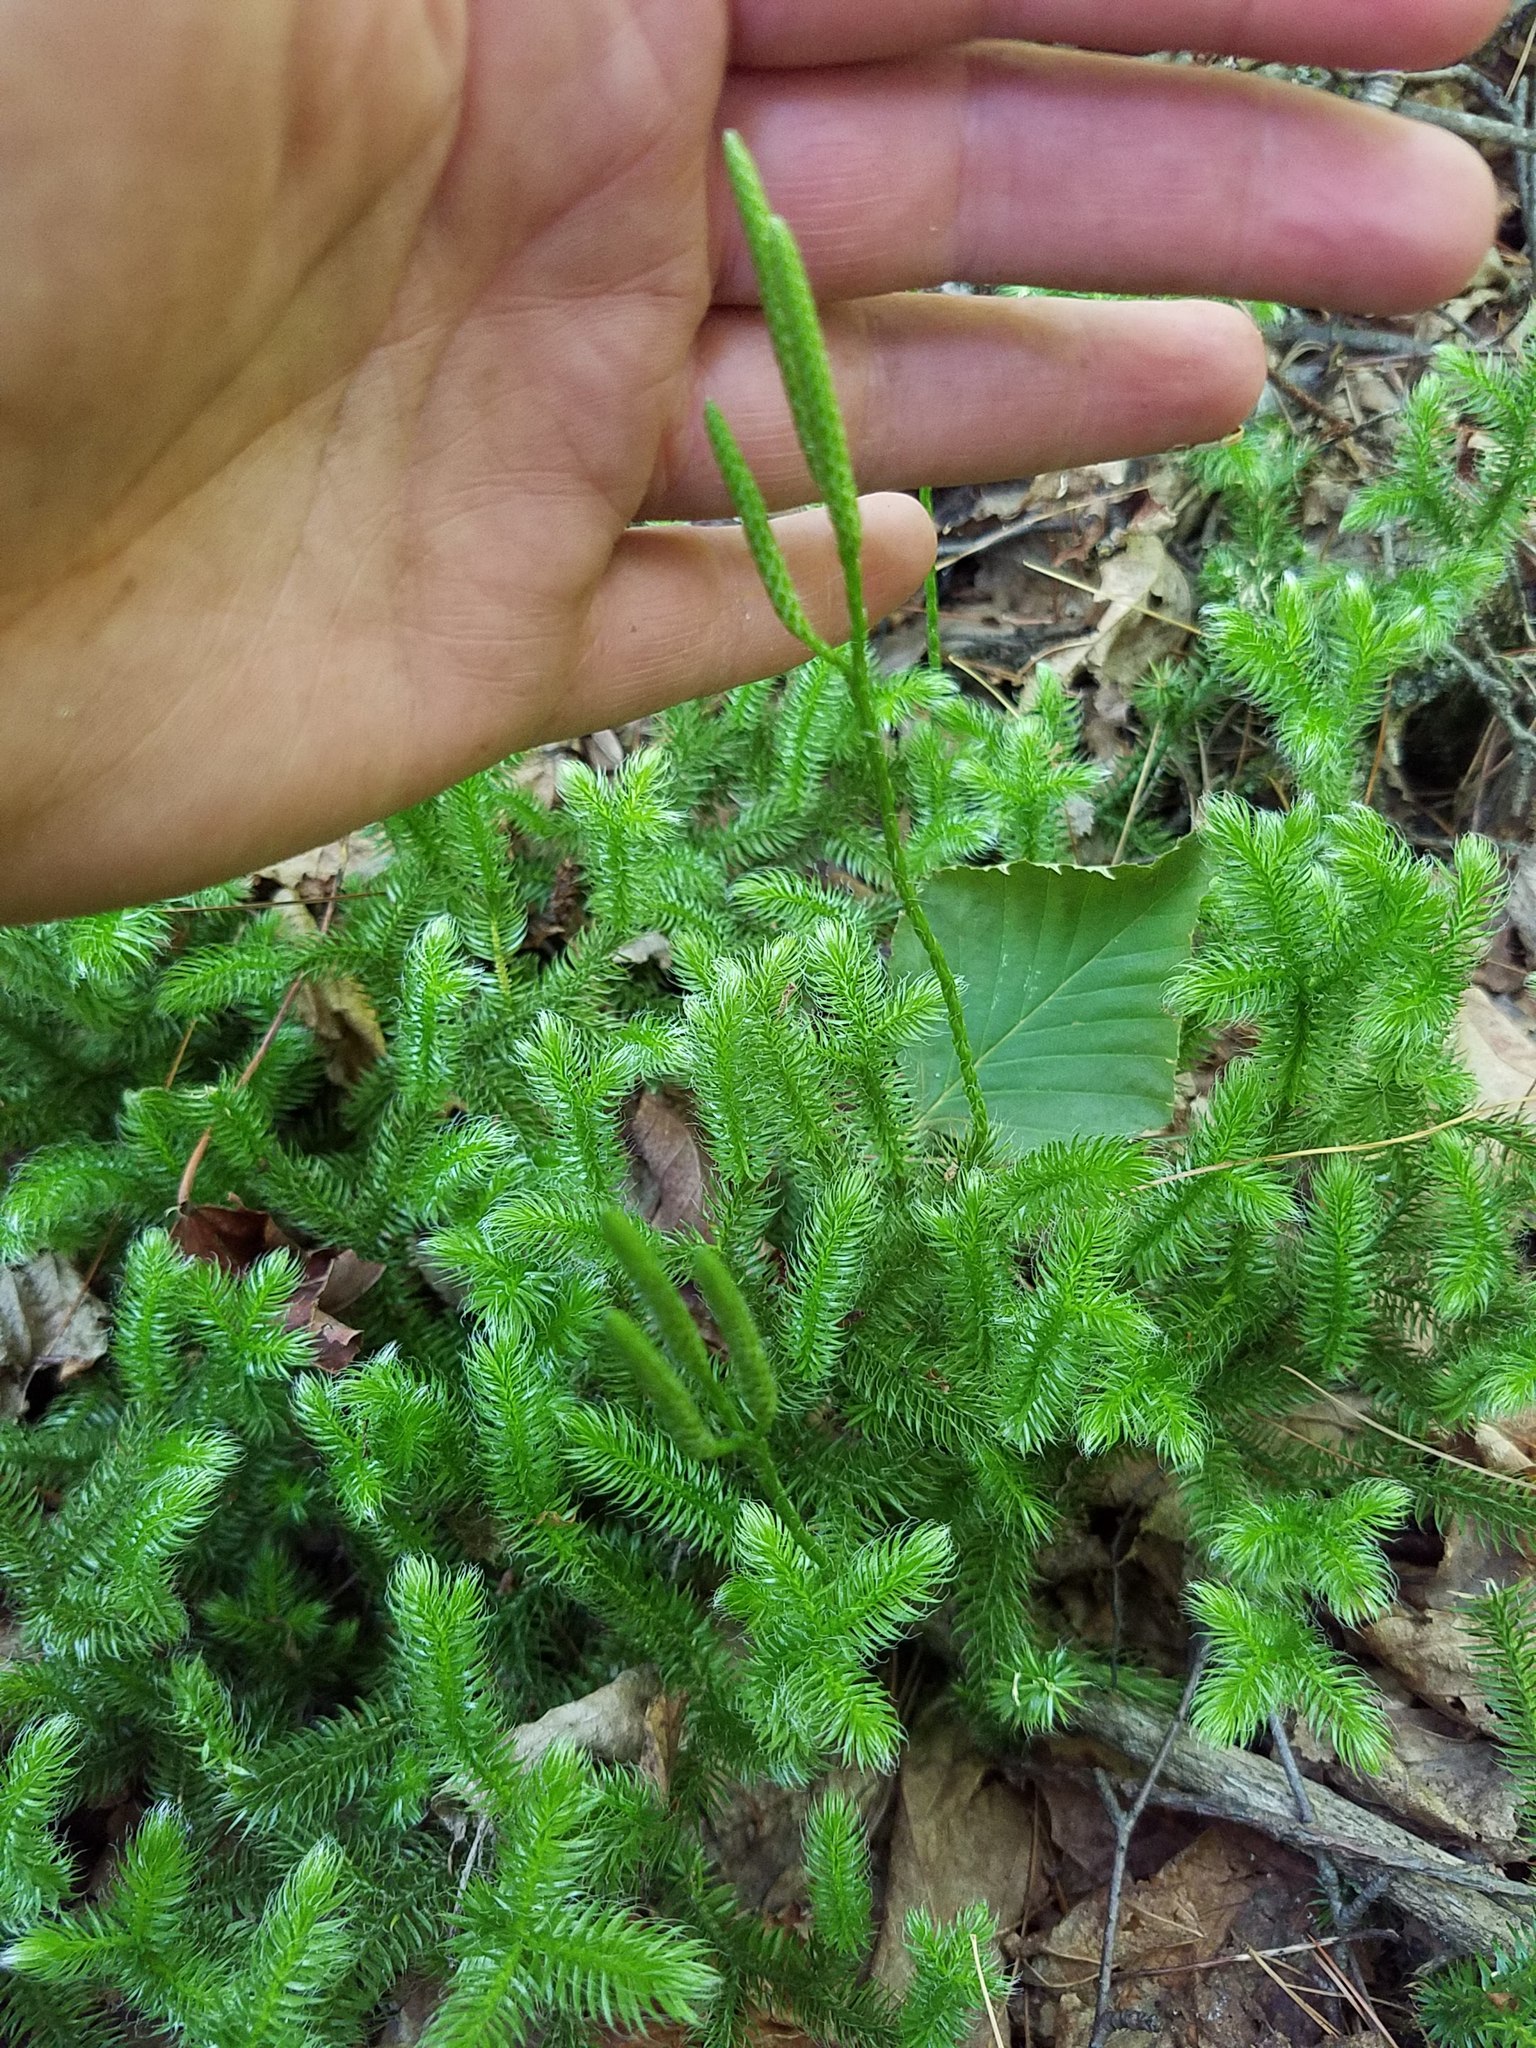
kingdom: Plantae
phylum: Tracheophyta
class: Lycopodiopsida
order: Lycopodiales
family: Lycopodiaceae
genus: Lycopodium
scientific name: Lycopodium clavatum
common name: Stag's-horn clubmoss
